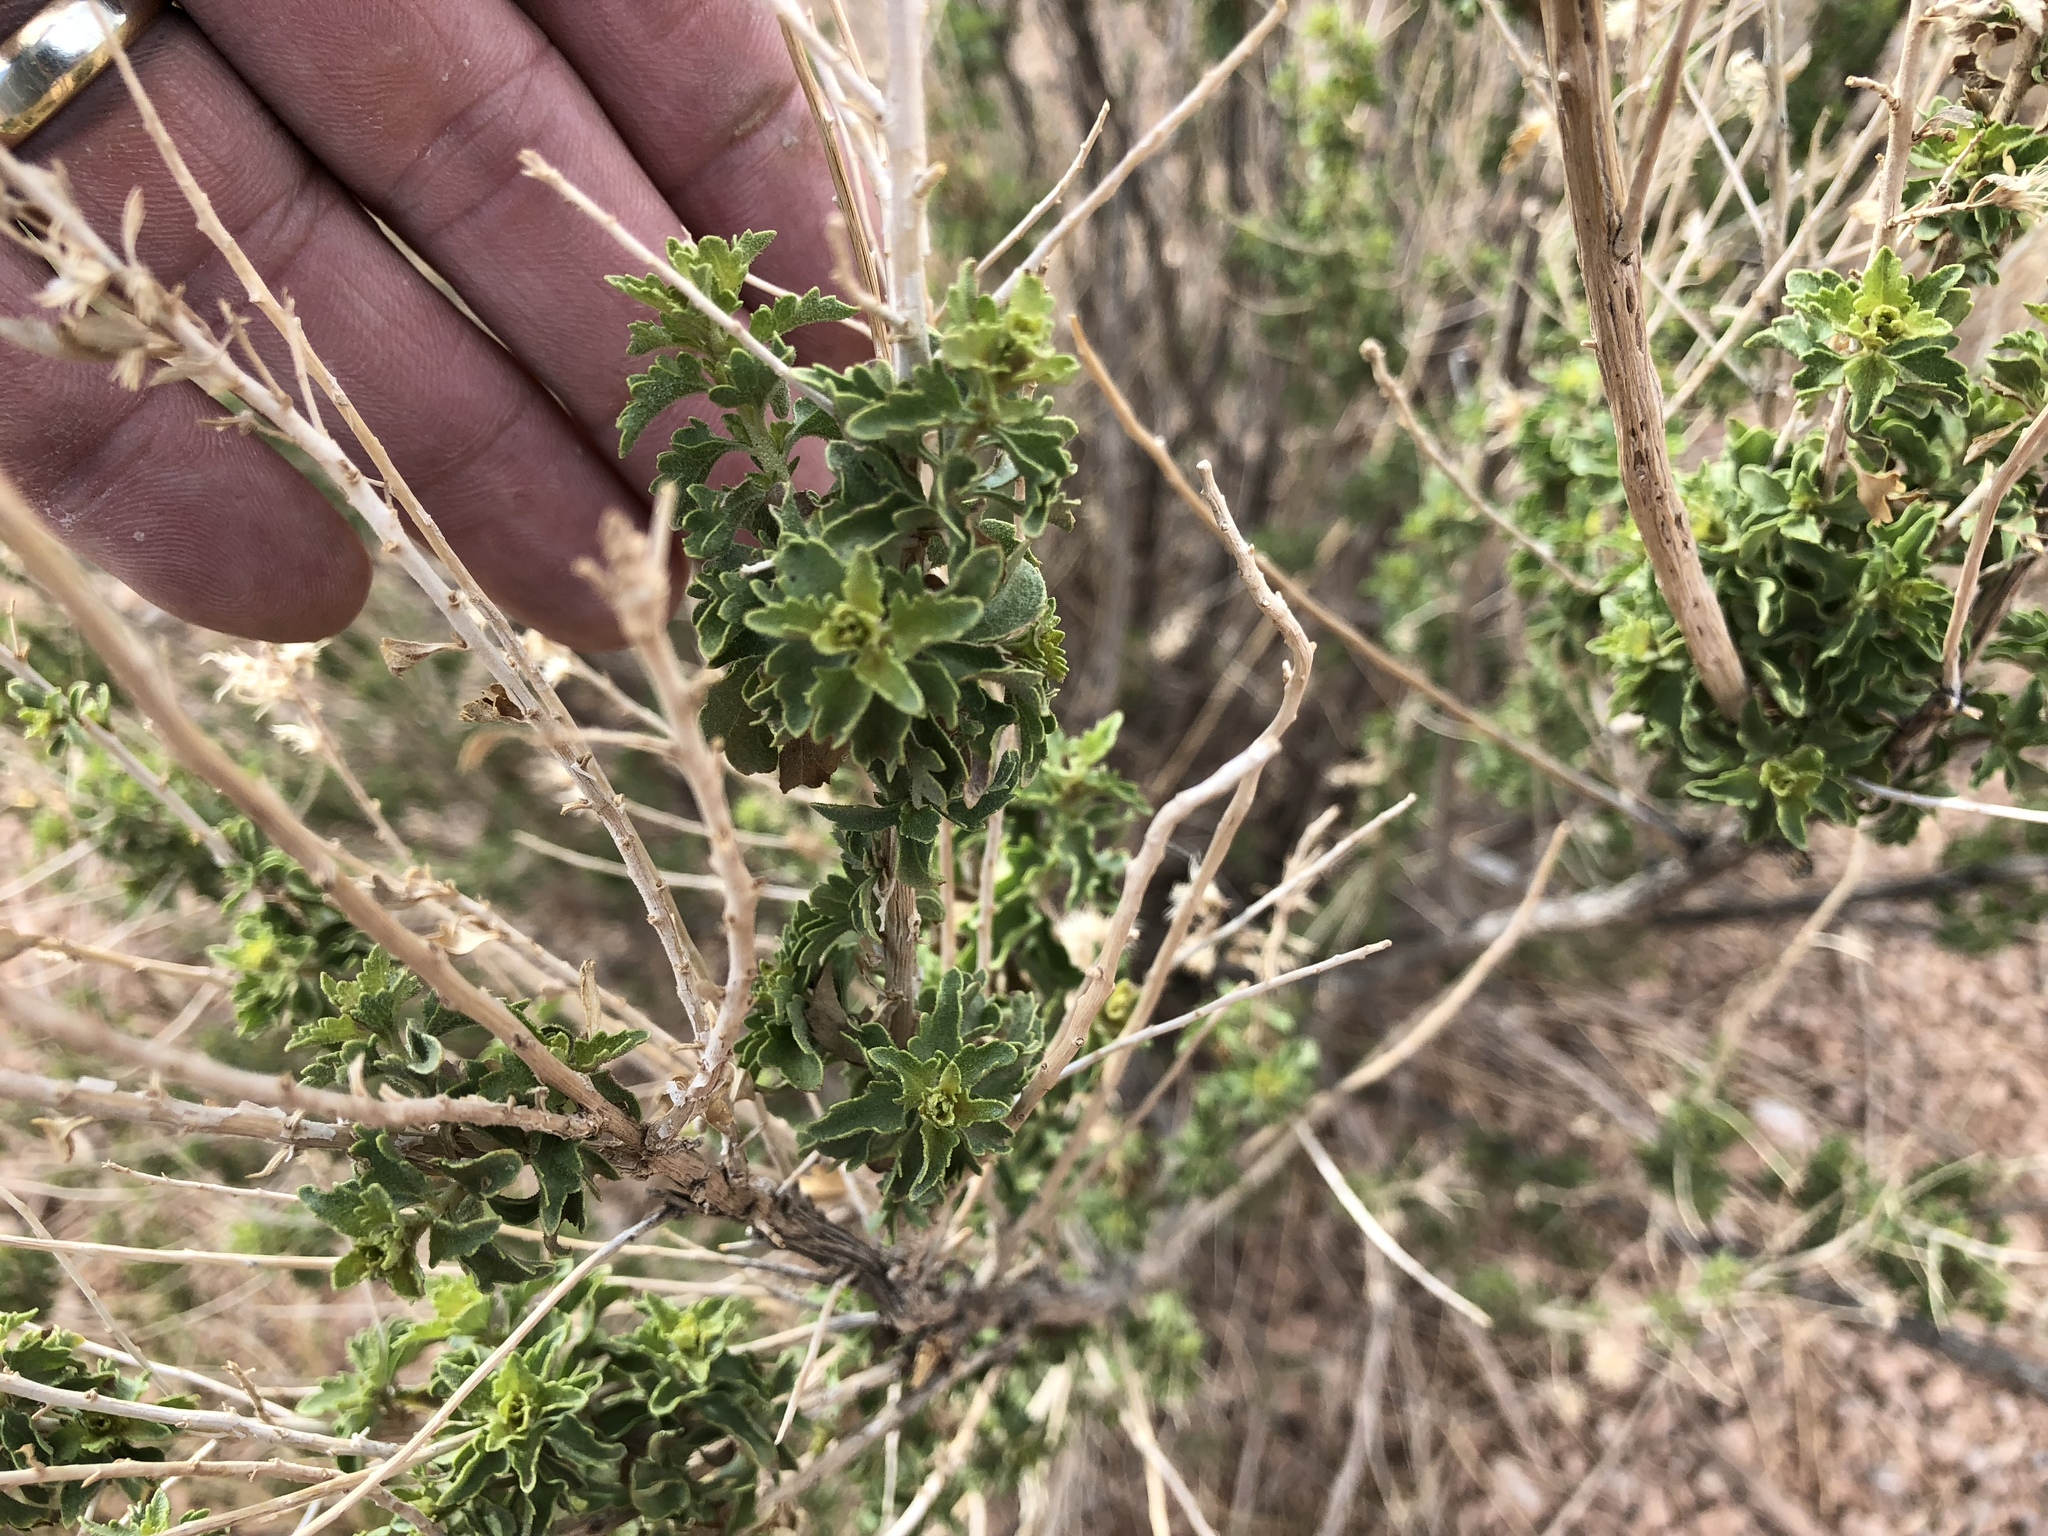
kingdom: Plantae
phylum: Tracheophyta
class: Magnoliopsida
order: Asterales
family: Asteraceae
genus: Brickellia
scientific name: Brickellia laciniata
